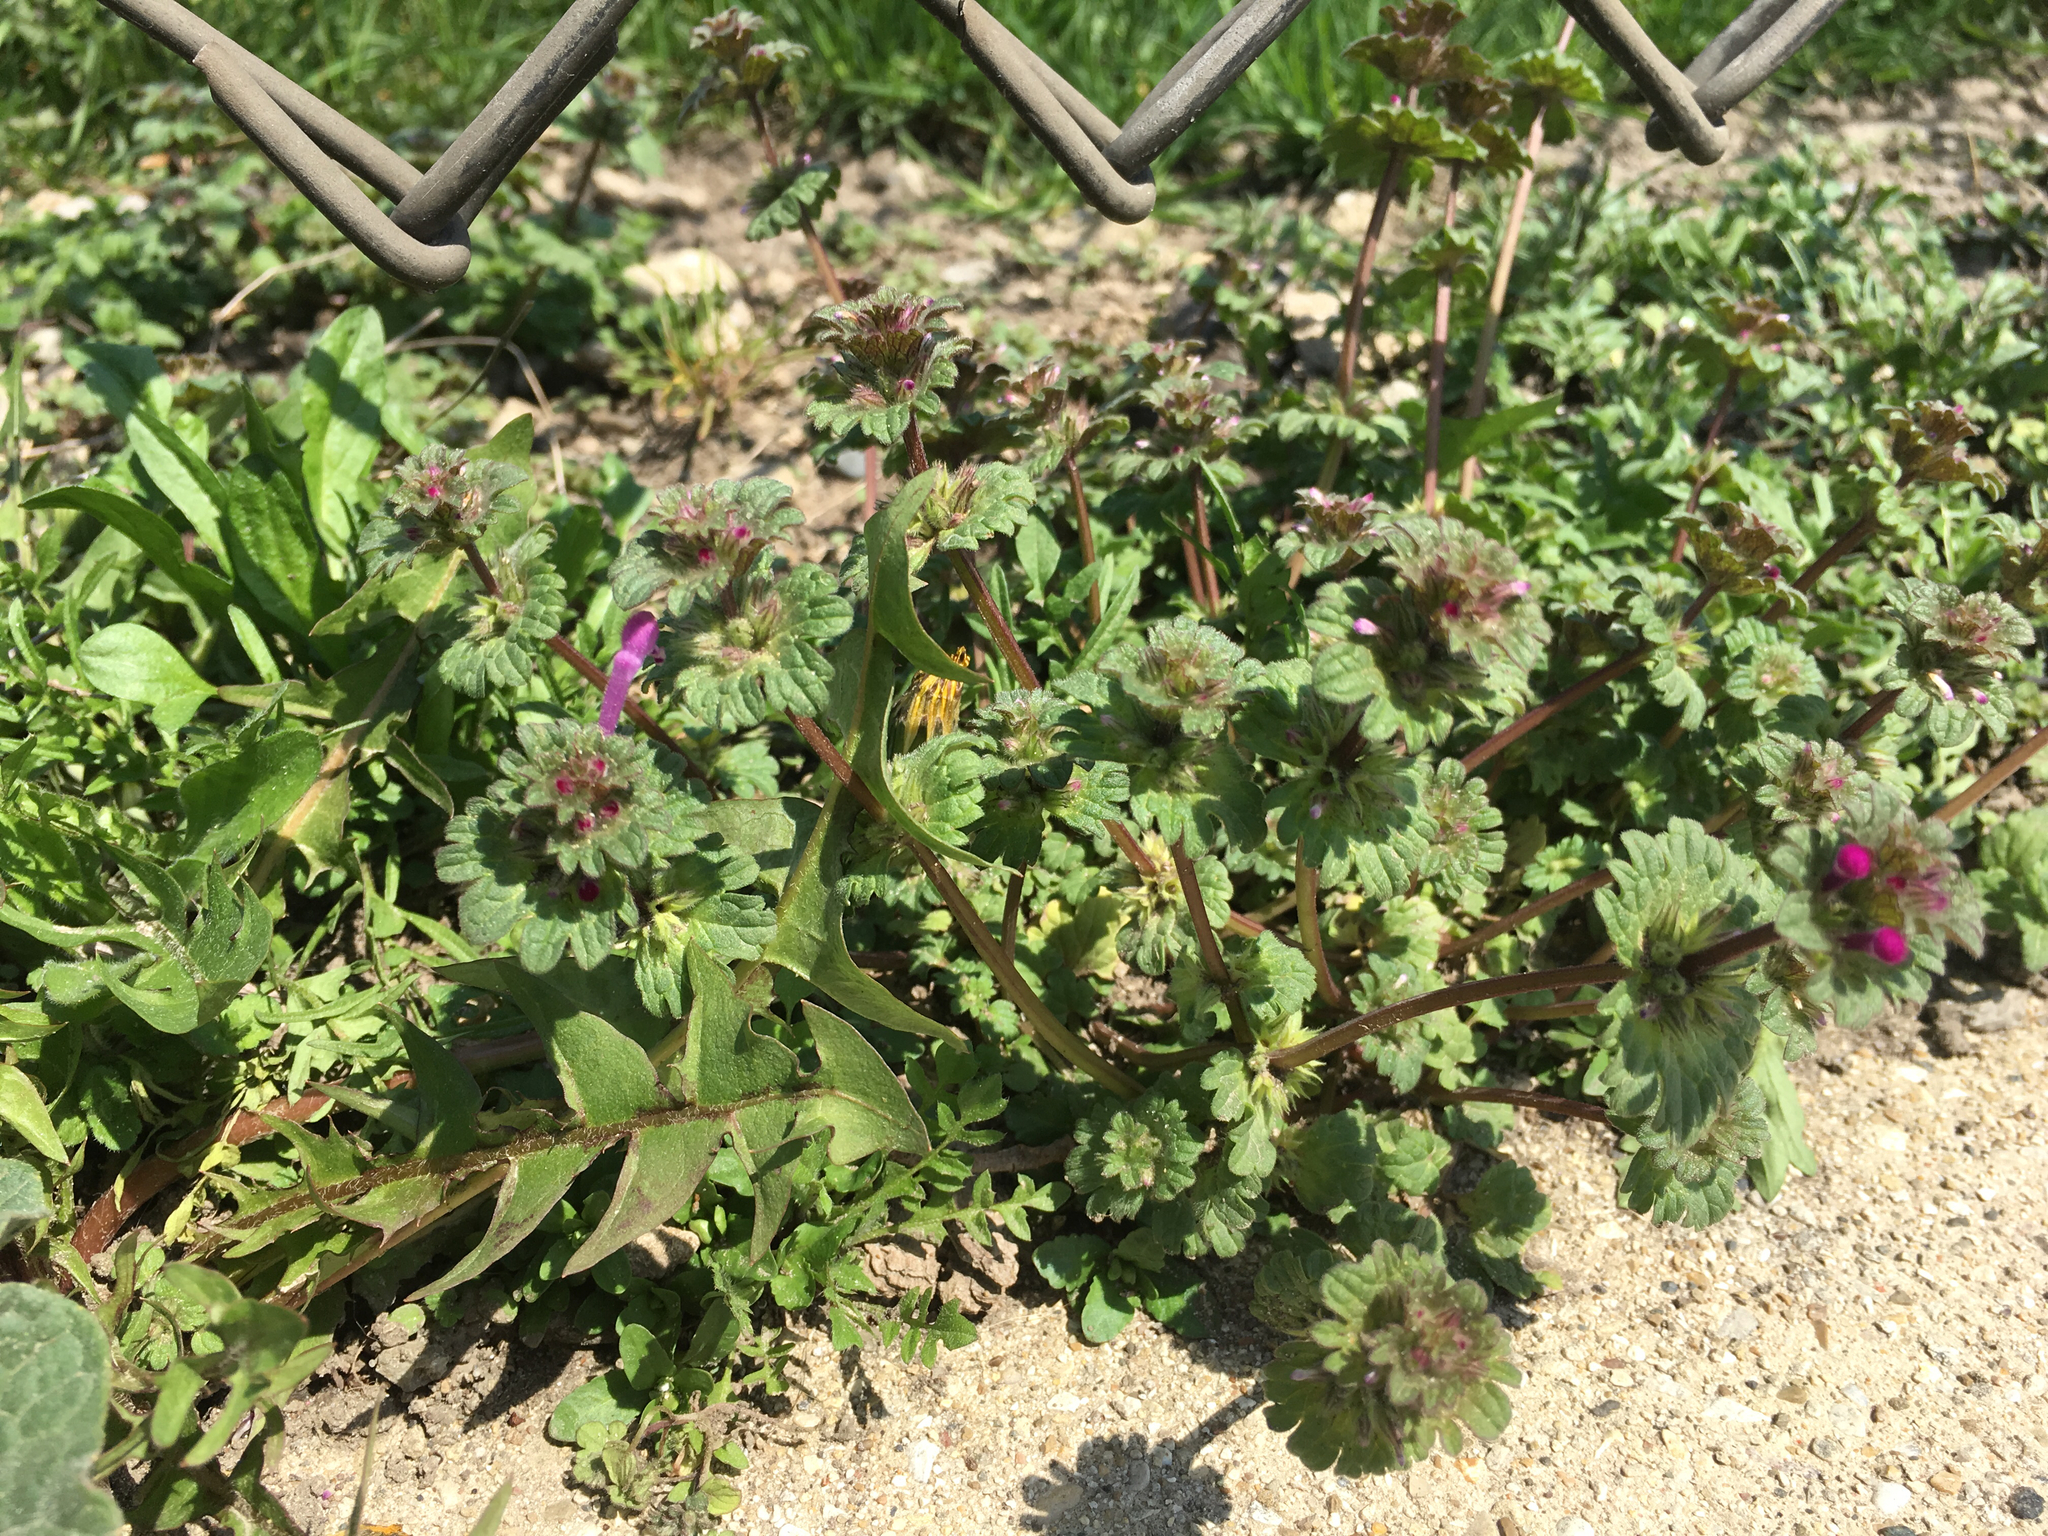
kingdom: Plantae
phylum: Tracheophyta
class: Magnoliopsida
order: Lamiales
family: Lamiaceae
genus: Lamium
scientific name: Lamium amplexicaule
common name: Henbit dead-nettle
